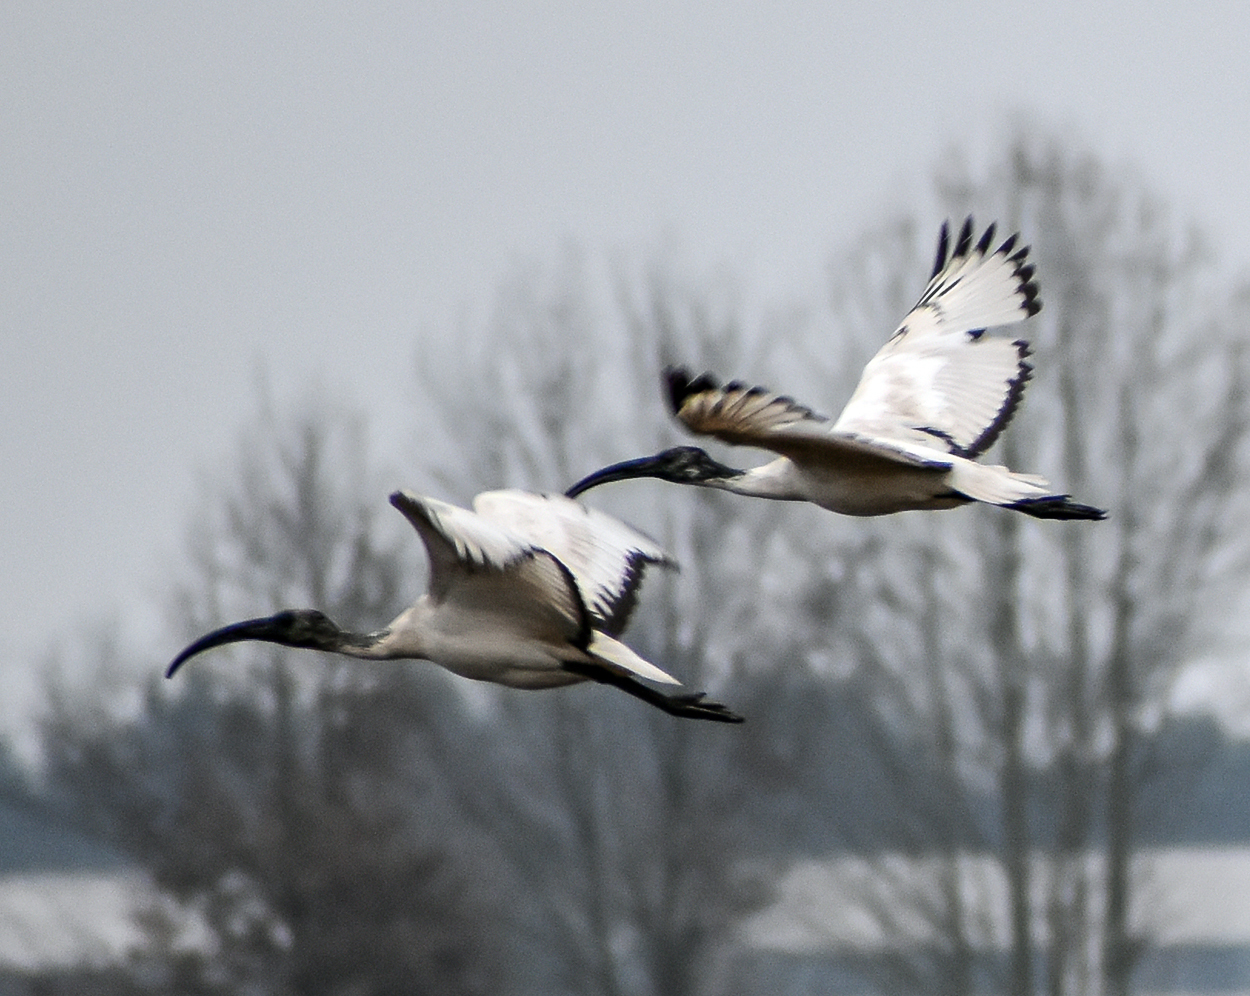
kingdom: Animalia
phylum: Chordata
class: Aves
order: Pelecaniformes
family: Threskiornithidae
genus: Threskiornis
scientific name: Threskiornis aethiopicus
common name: Sacred ibis
